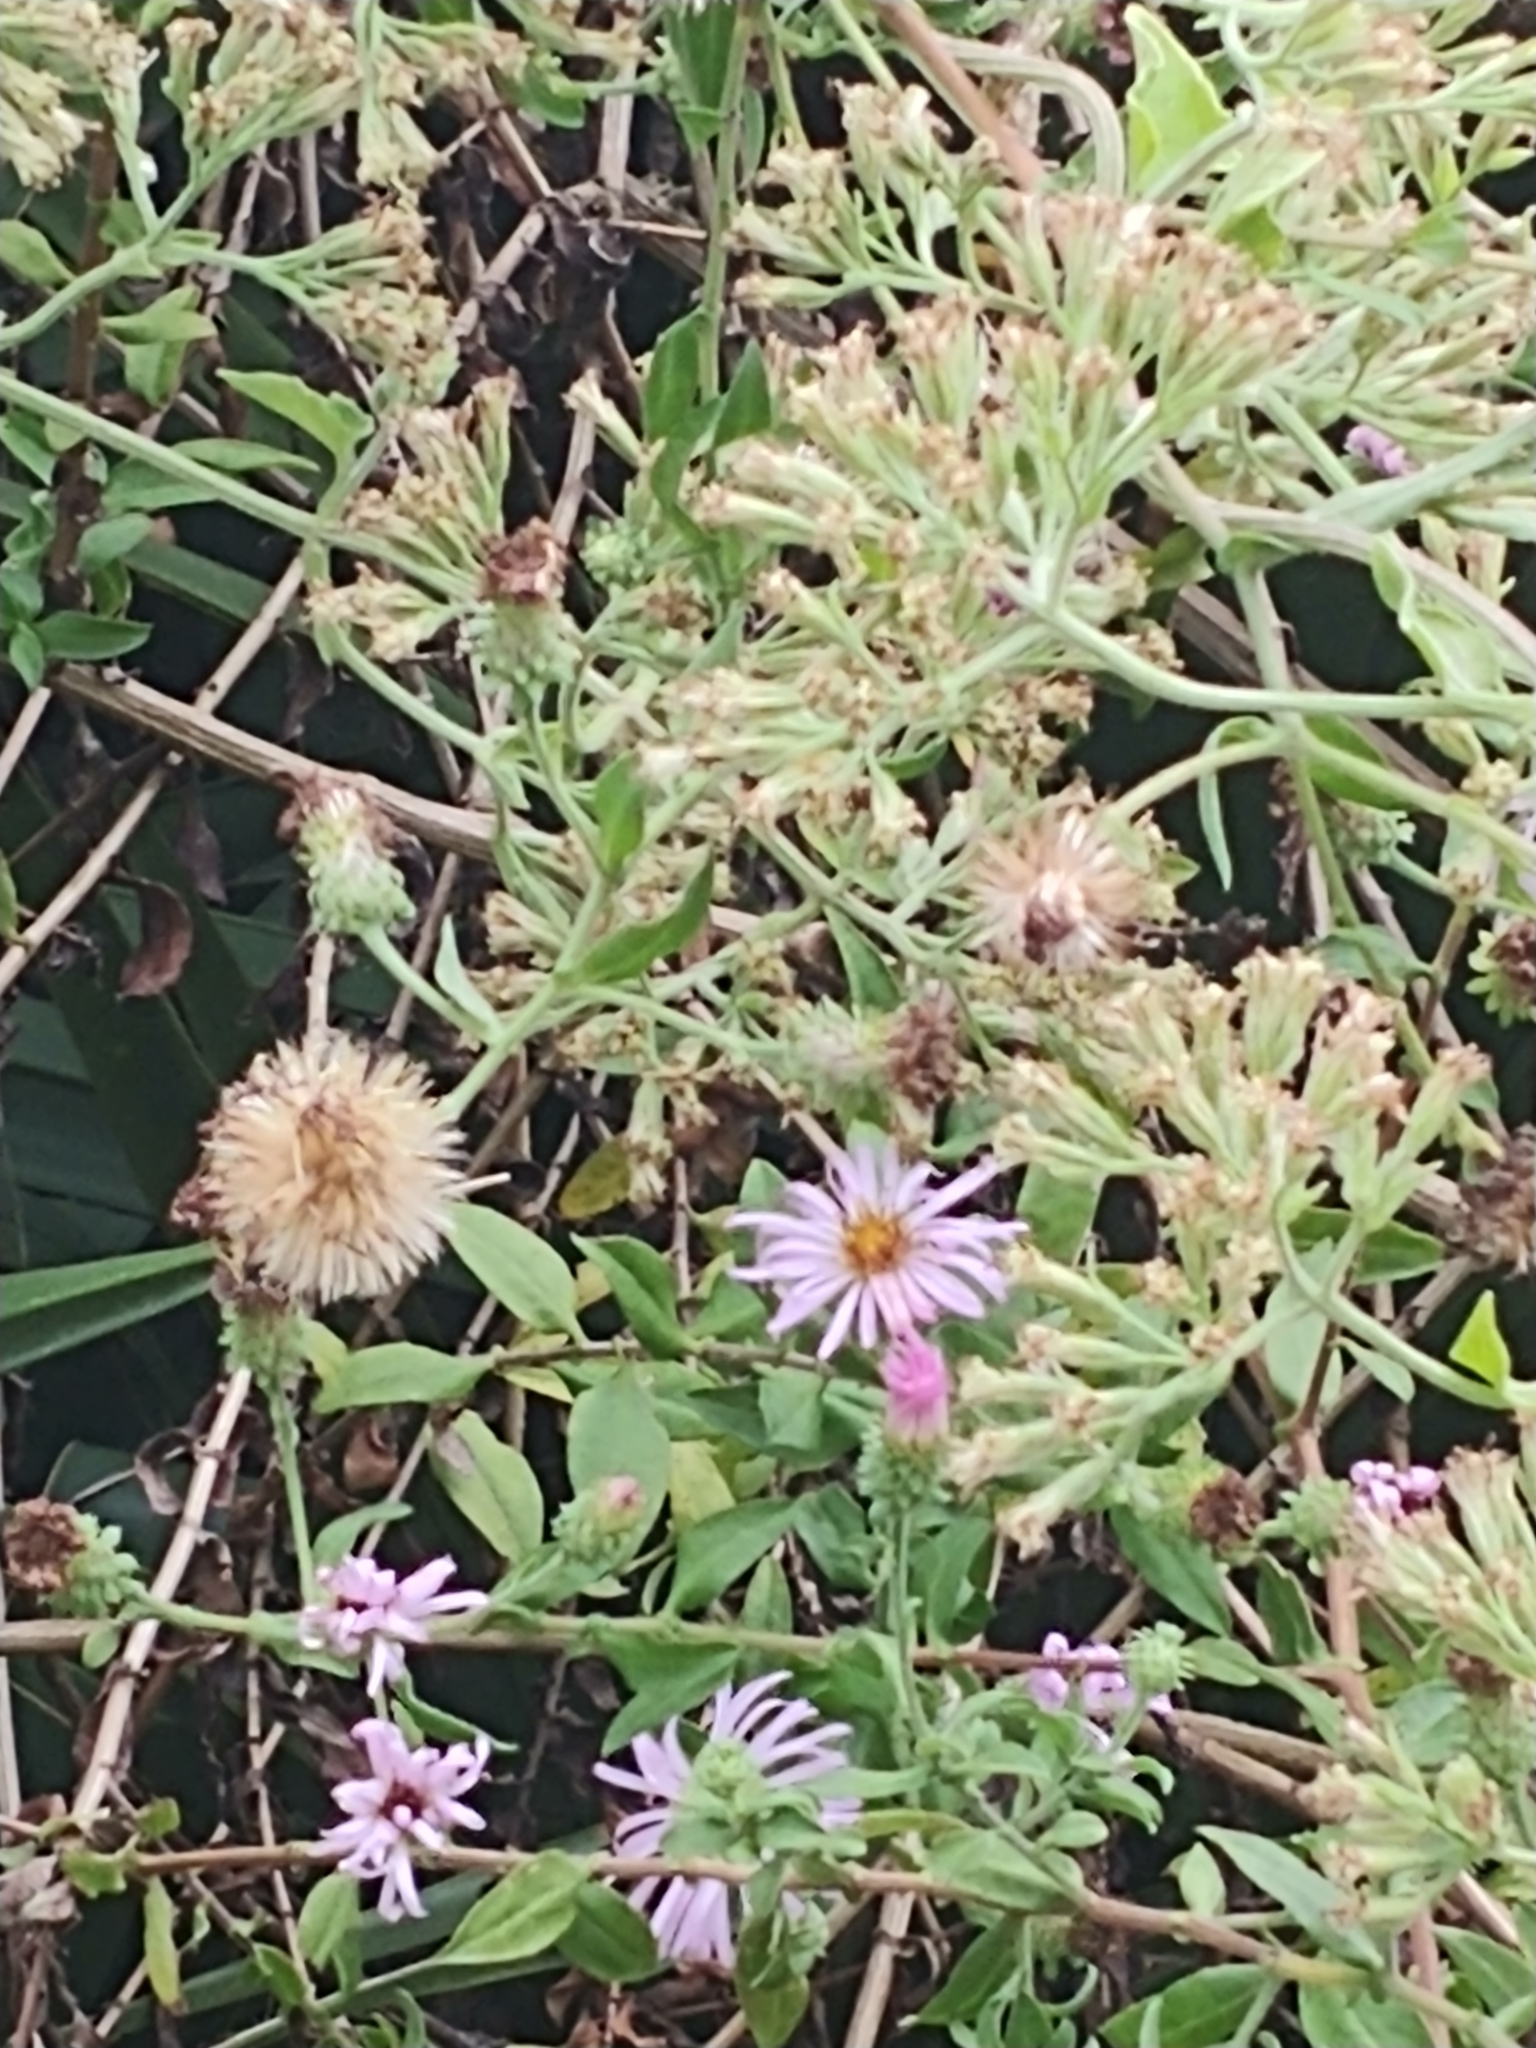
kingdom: Plantae
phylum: Tracheophyta
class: Magnoliopsida
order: Asterales
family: Asteraceae
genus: Ampelaster
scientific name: Ampelaster carolinianus
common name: Climbing aster
